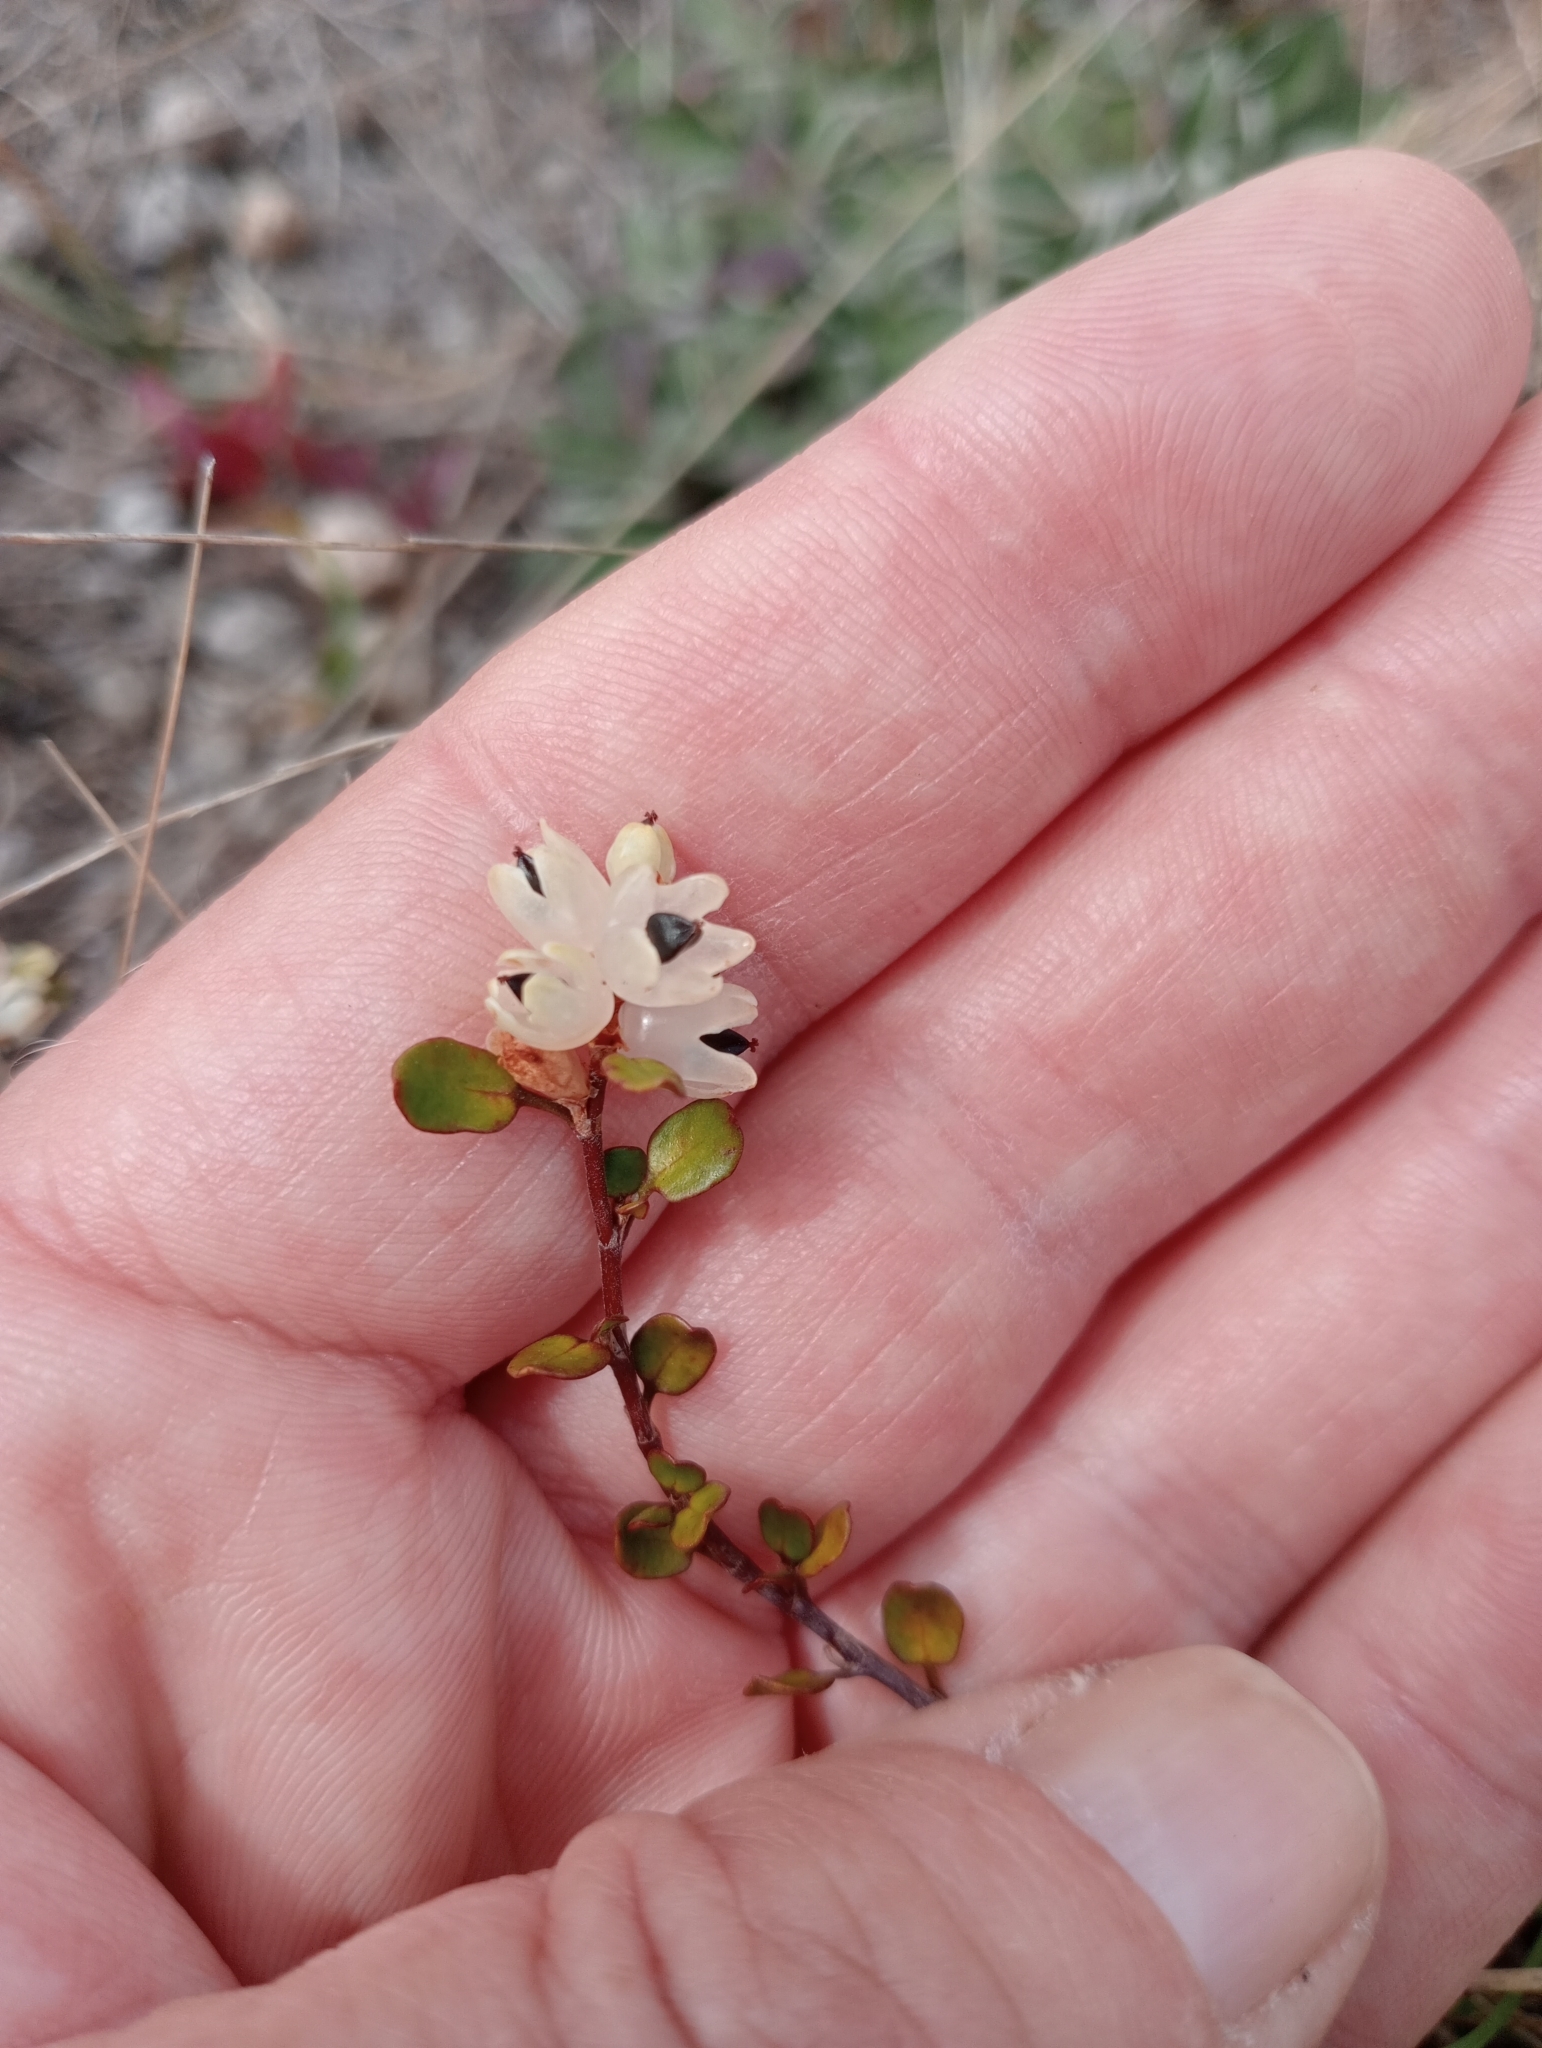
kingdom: Plantae
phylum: Tracheophyta
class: Magnoliopsida
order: Caryophyllales
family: Polygonaceae
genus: Muehlenbeckia
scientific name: Muehlenbeckia complexa
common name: Wireplant
